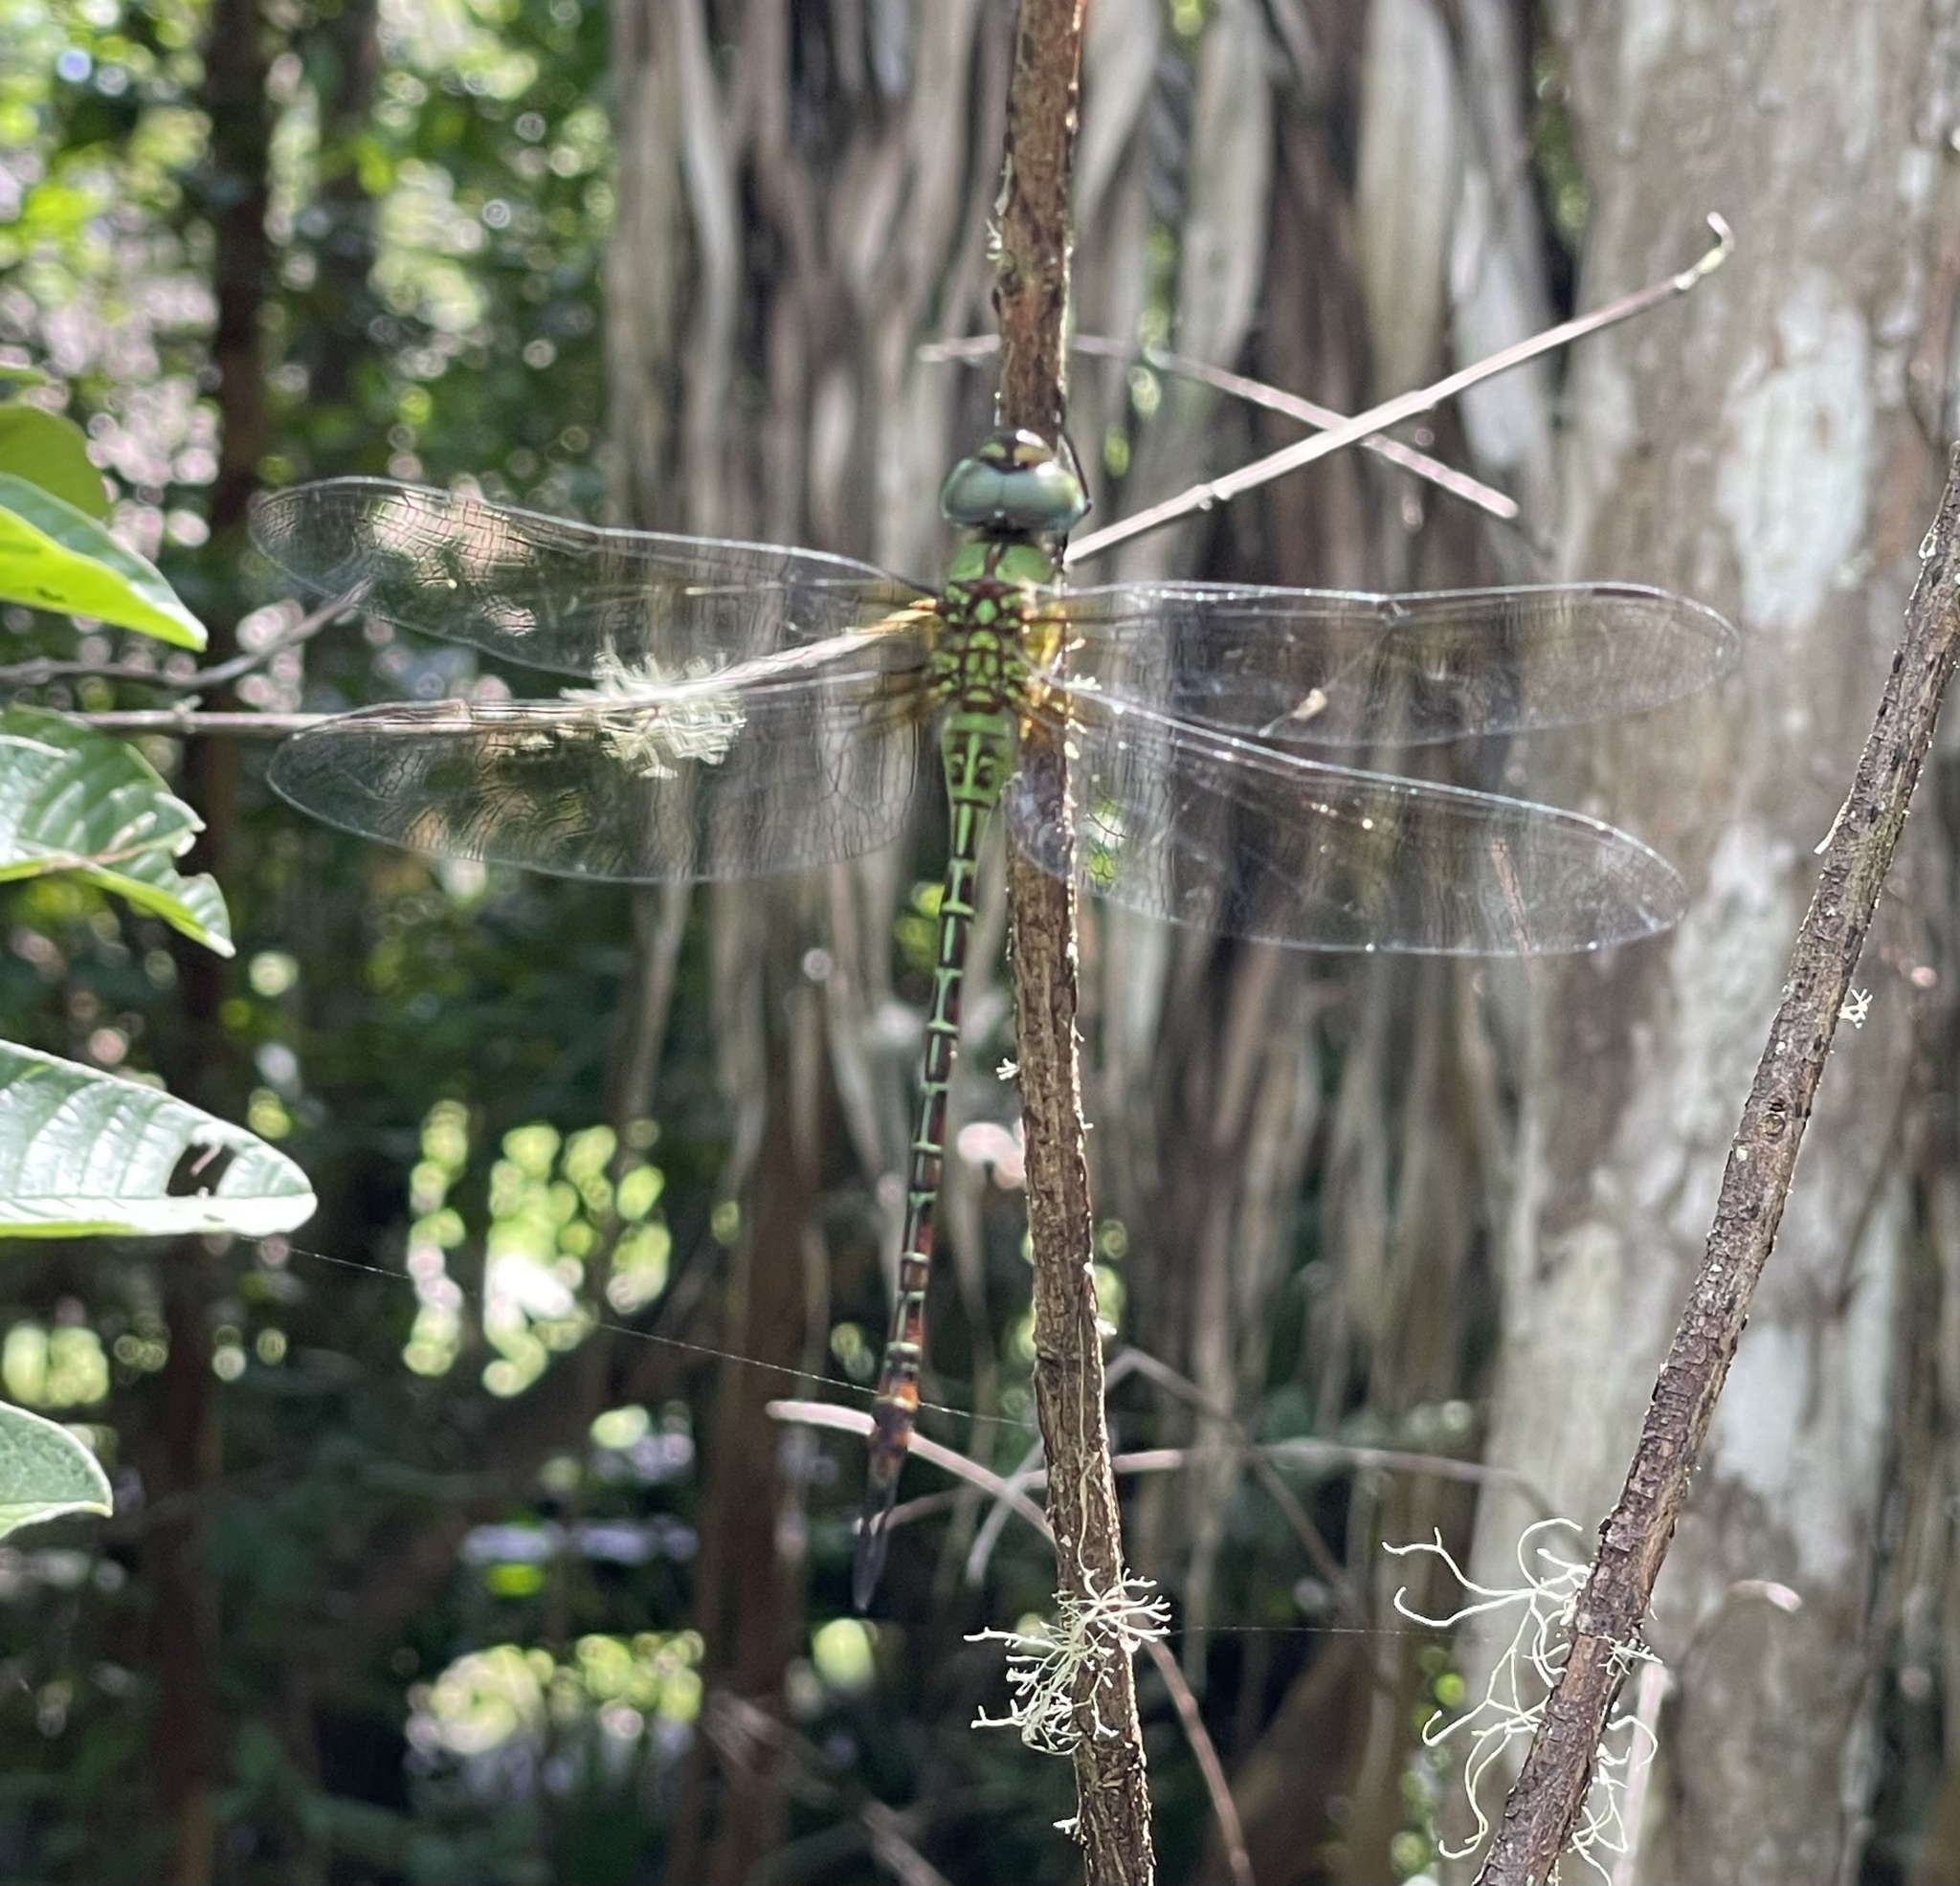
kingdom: Animalia
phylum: Arthropoda
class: Insecta
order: Odonata
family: Aeshnidae
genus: Coryphaeschna
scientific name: Coryphaeschna adnexa
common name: Blue-faced darner
